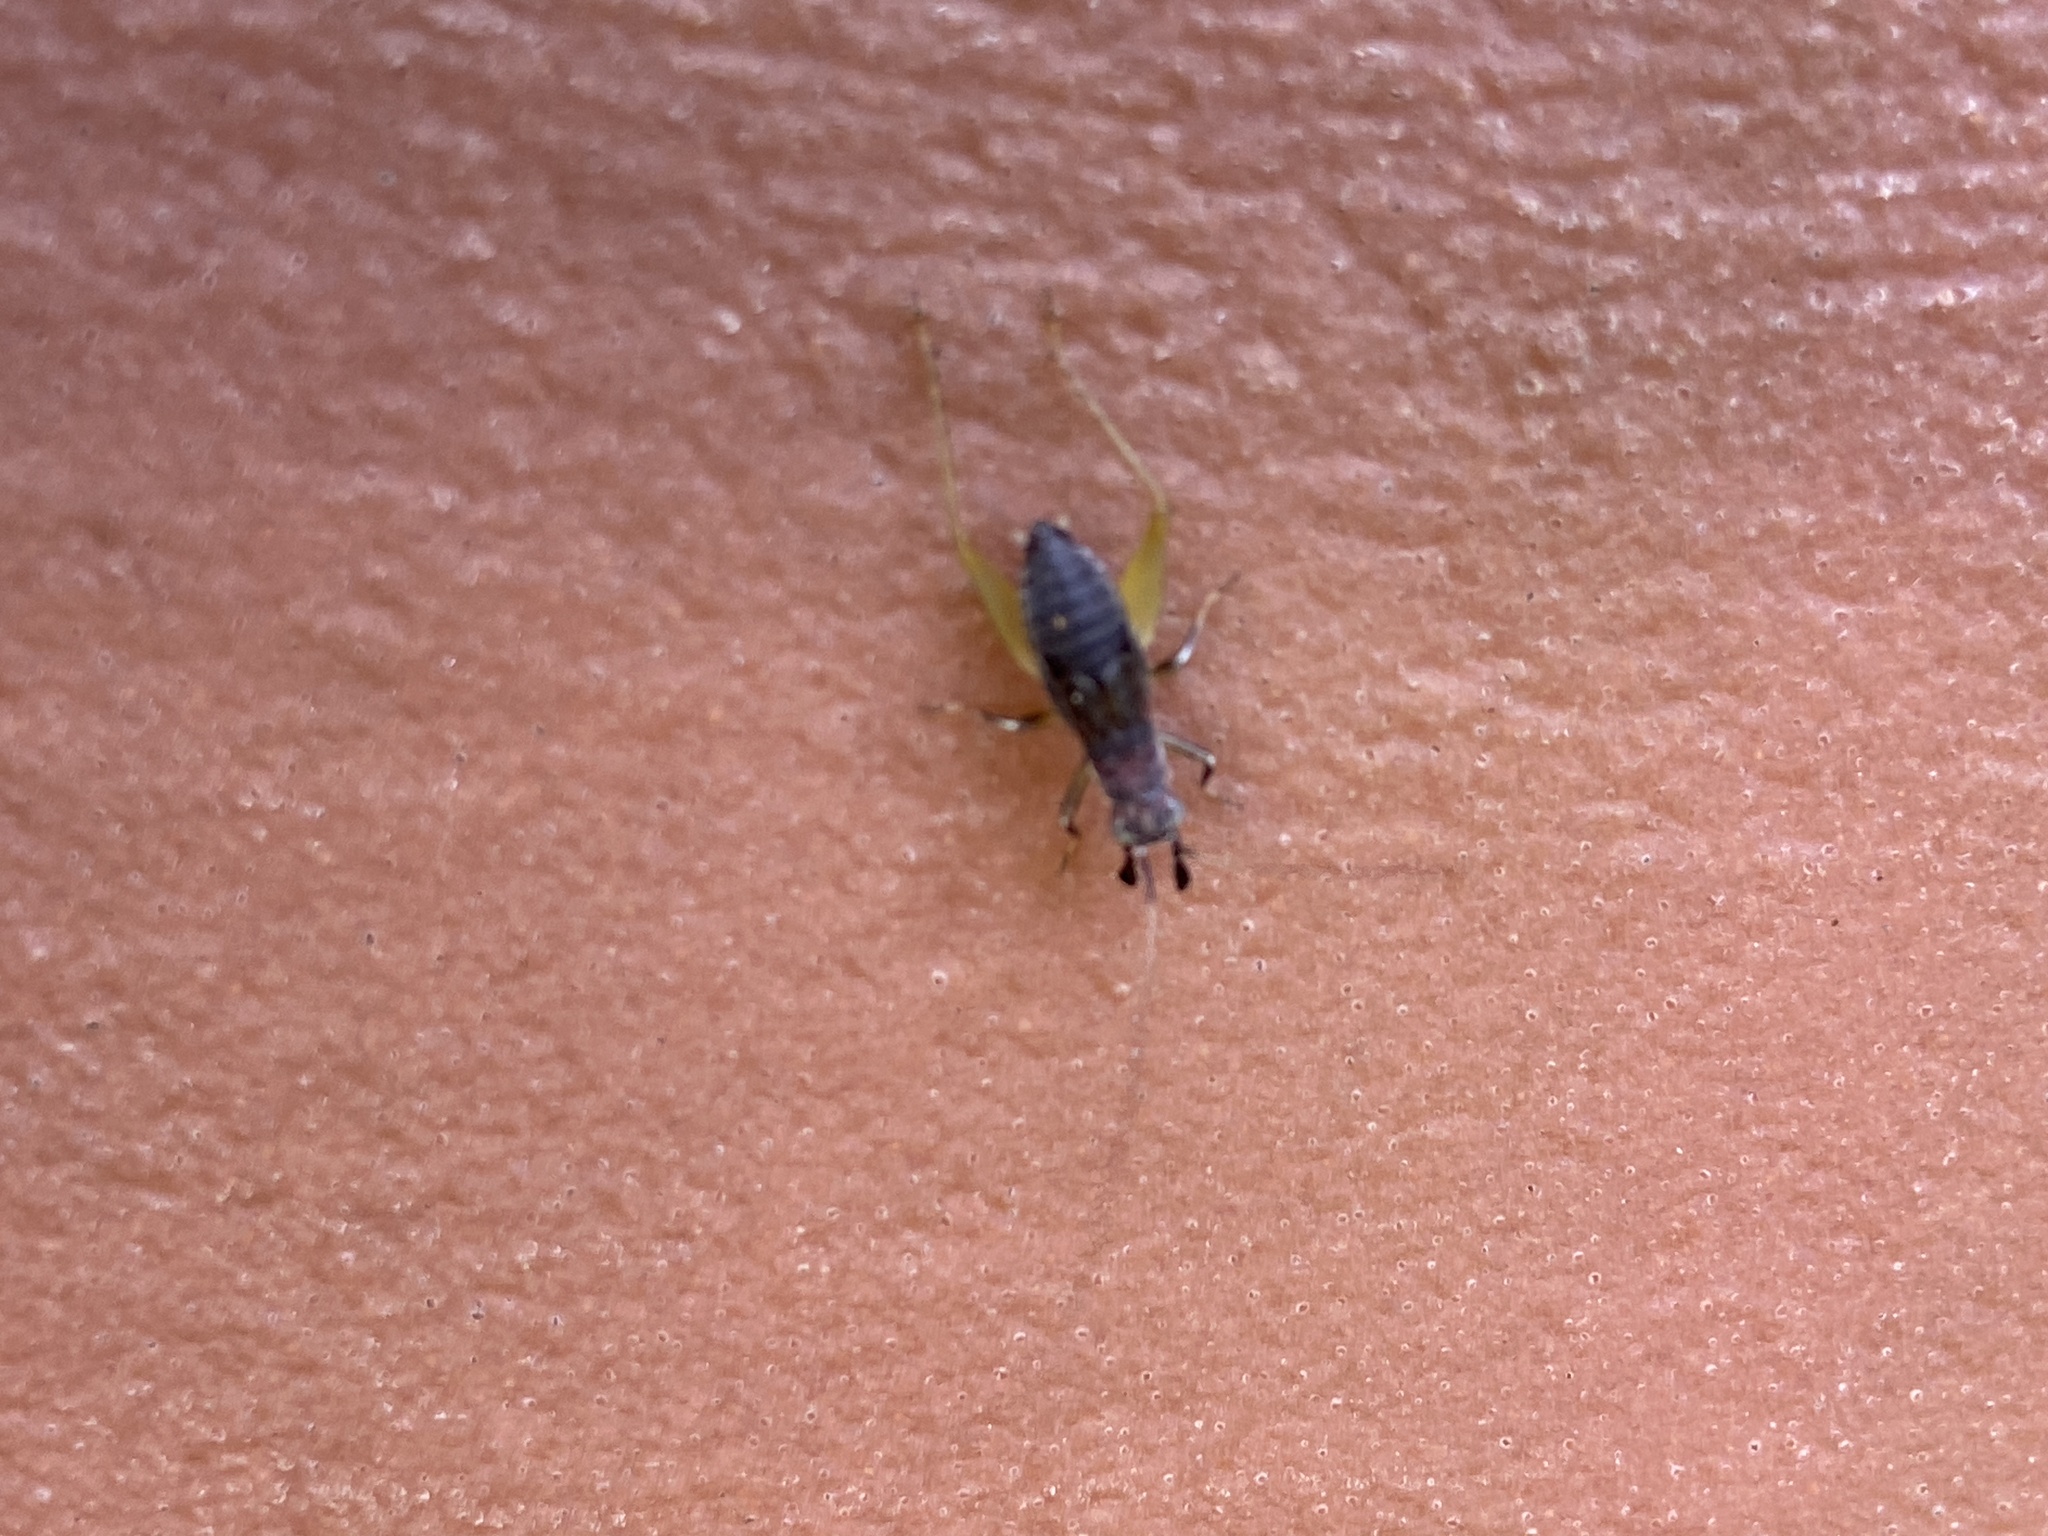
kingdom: Animalia
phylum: Arthropoda
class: Insecta
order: Orthoptera
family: Trigonidiidae
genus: Phyllopalpus
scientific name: Phyllopalpus pulchellus
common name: Handsome trig
